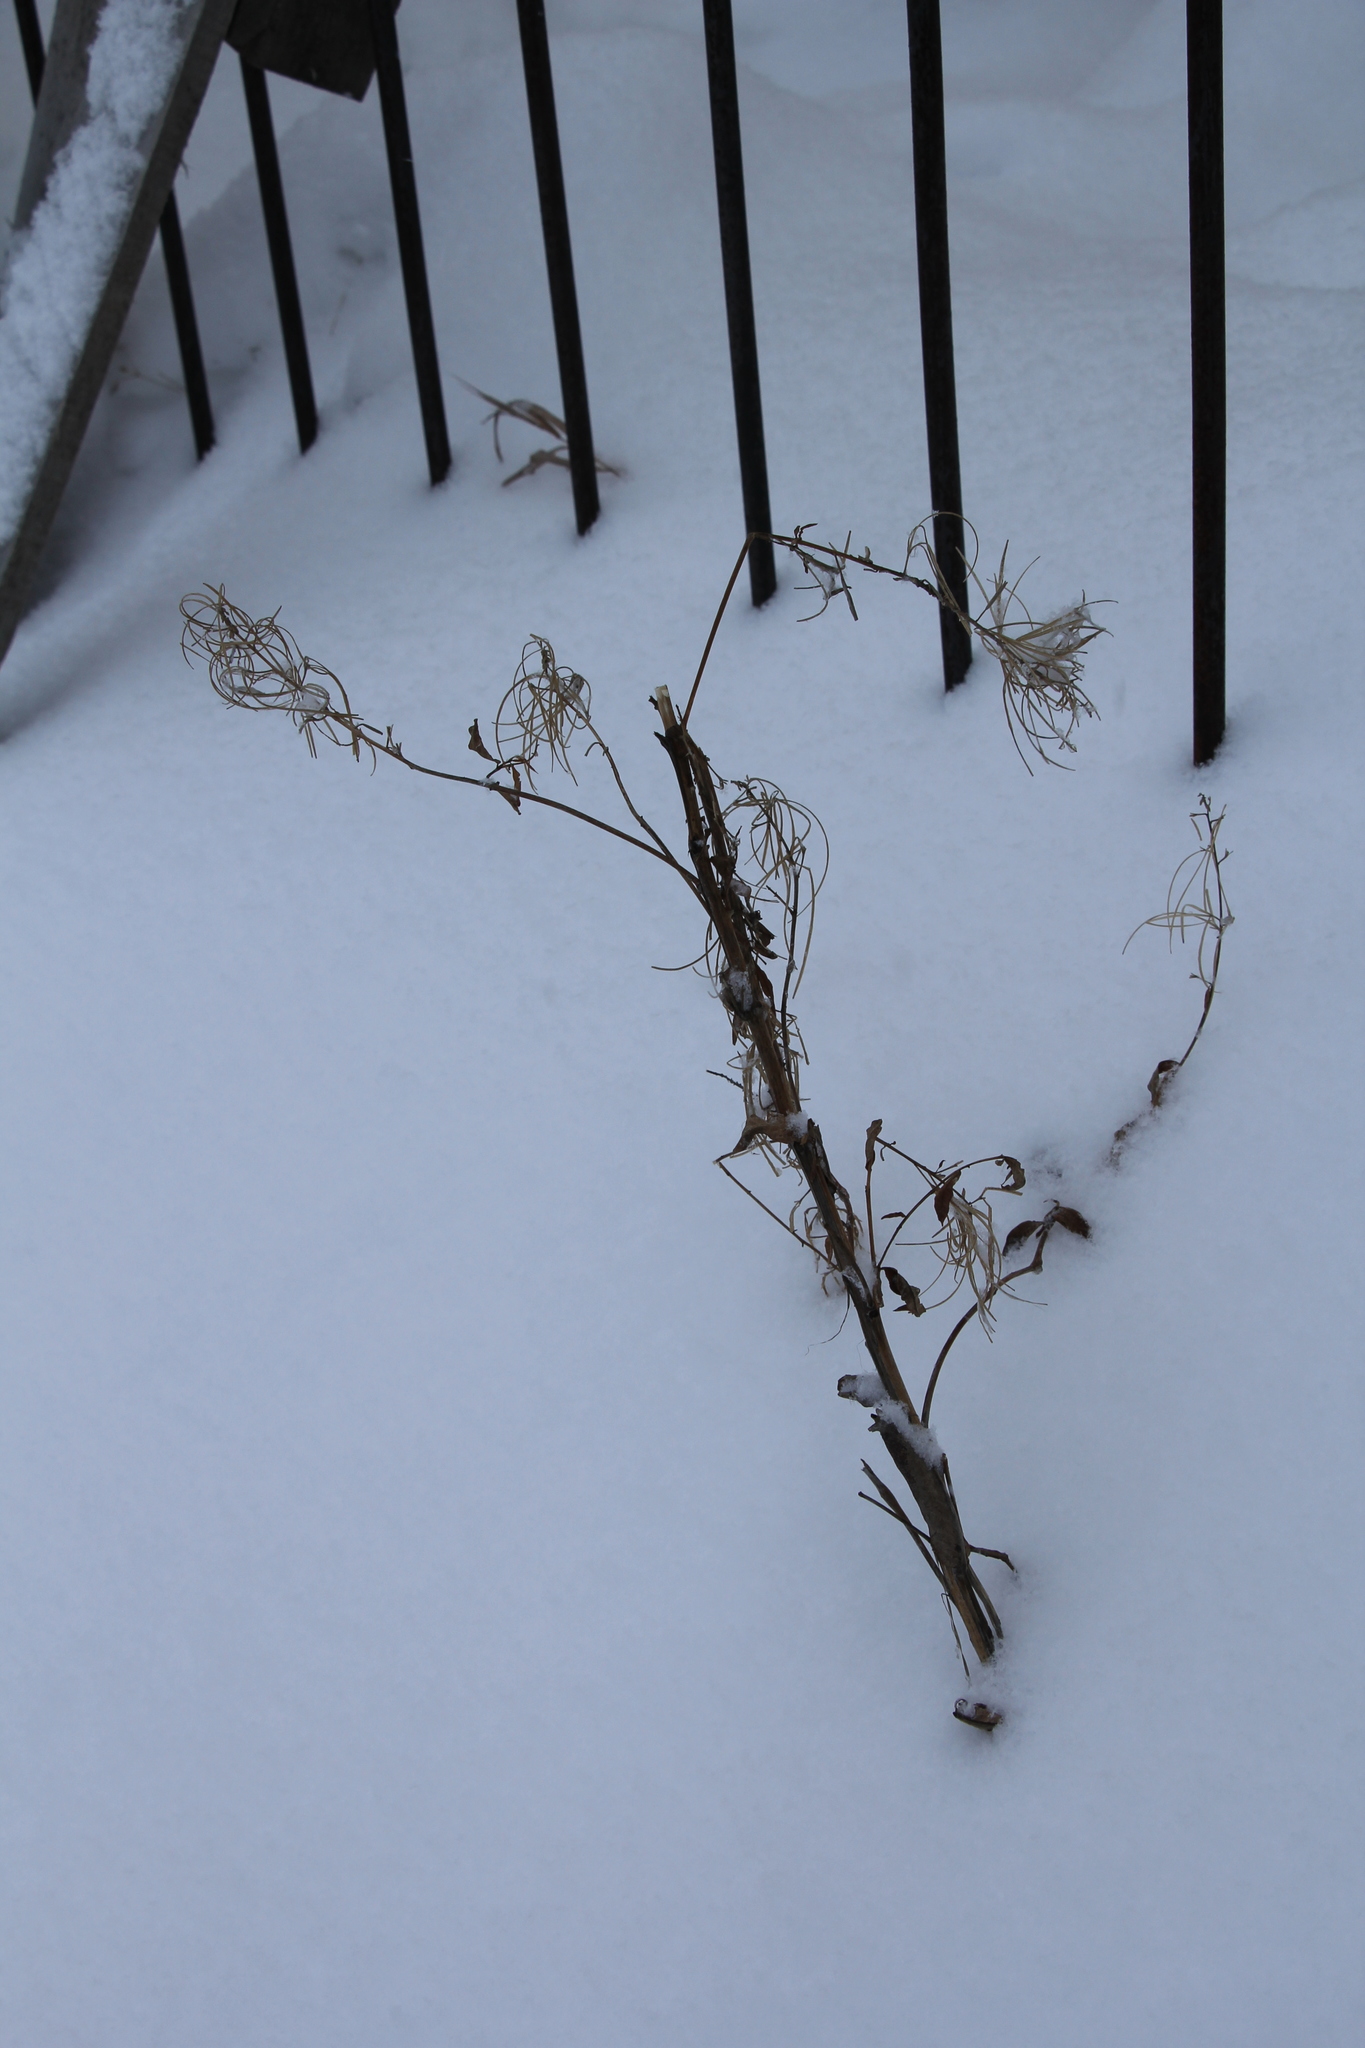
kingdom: Plantae
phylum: Tracheophyta
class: Magnoliopsida
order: Myrtales
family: Onagraceae
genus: Chamaenerion
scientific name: Chamaenerion angustifolium
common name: Fireweed
